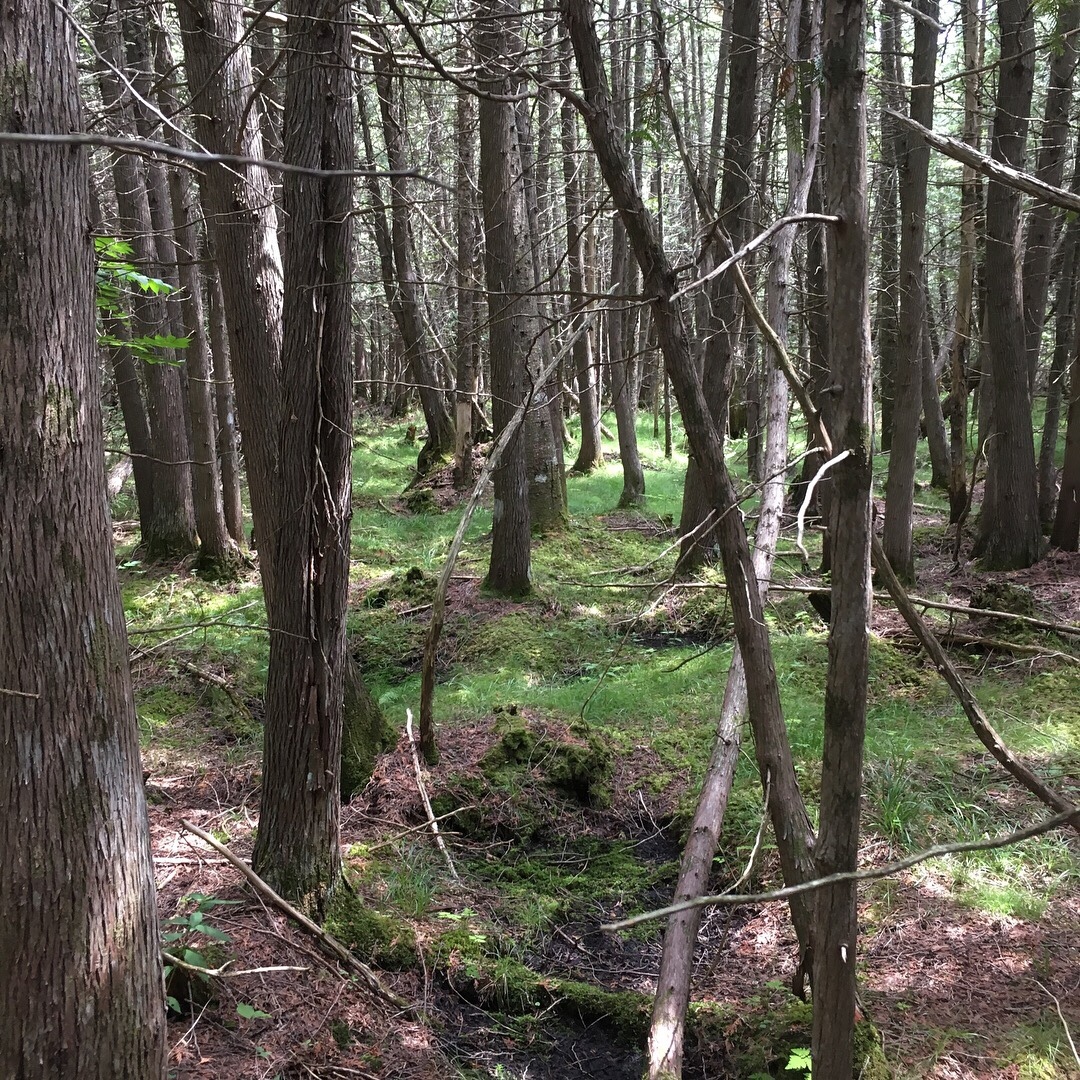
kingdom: Plantae
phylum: Tracheophyta
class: Pinopsida
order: Pinales
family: Cupressaceae
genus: Thuja
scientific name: Thuja occidentalis
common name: Northern white-cedar
